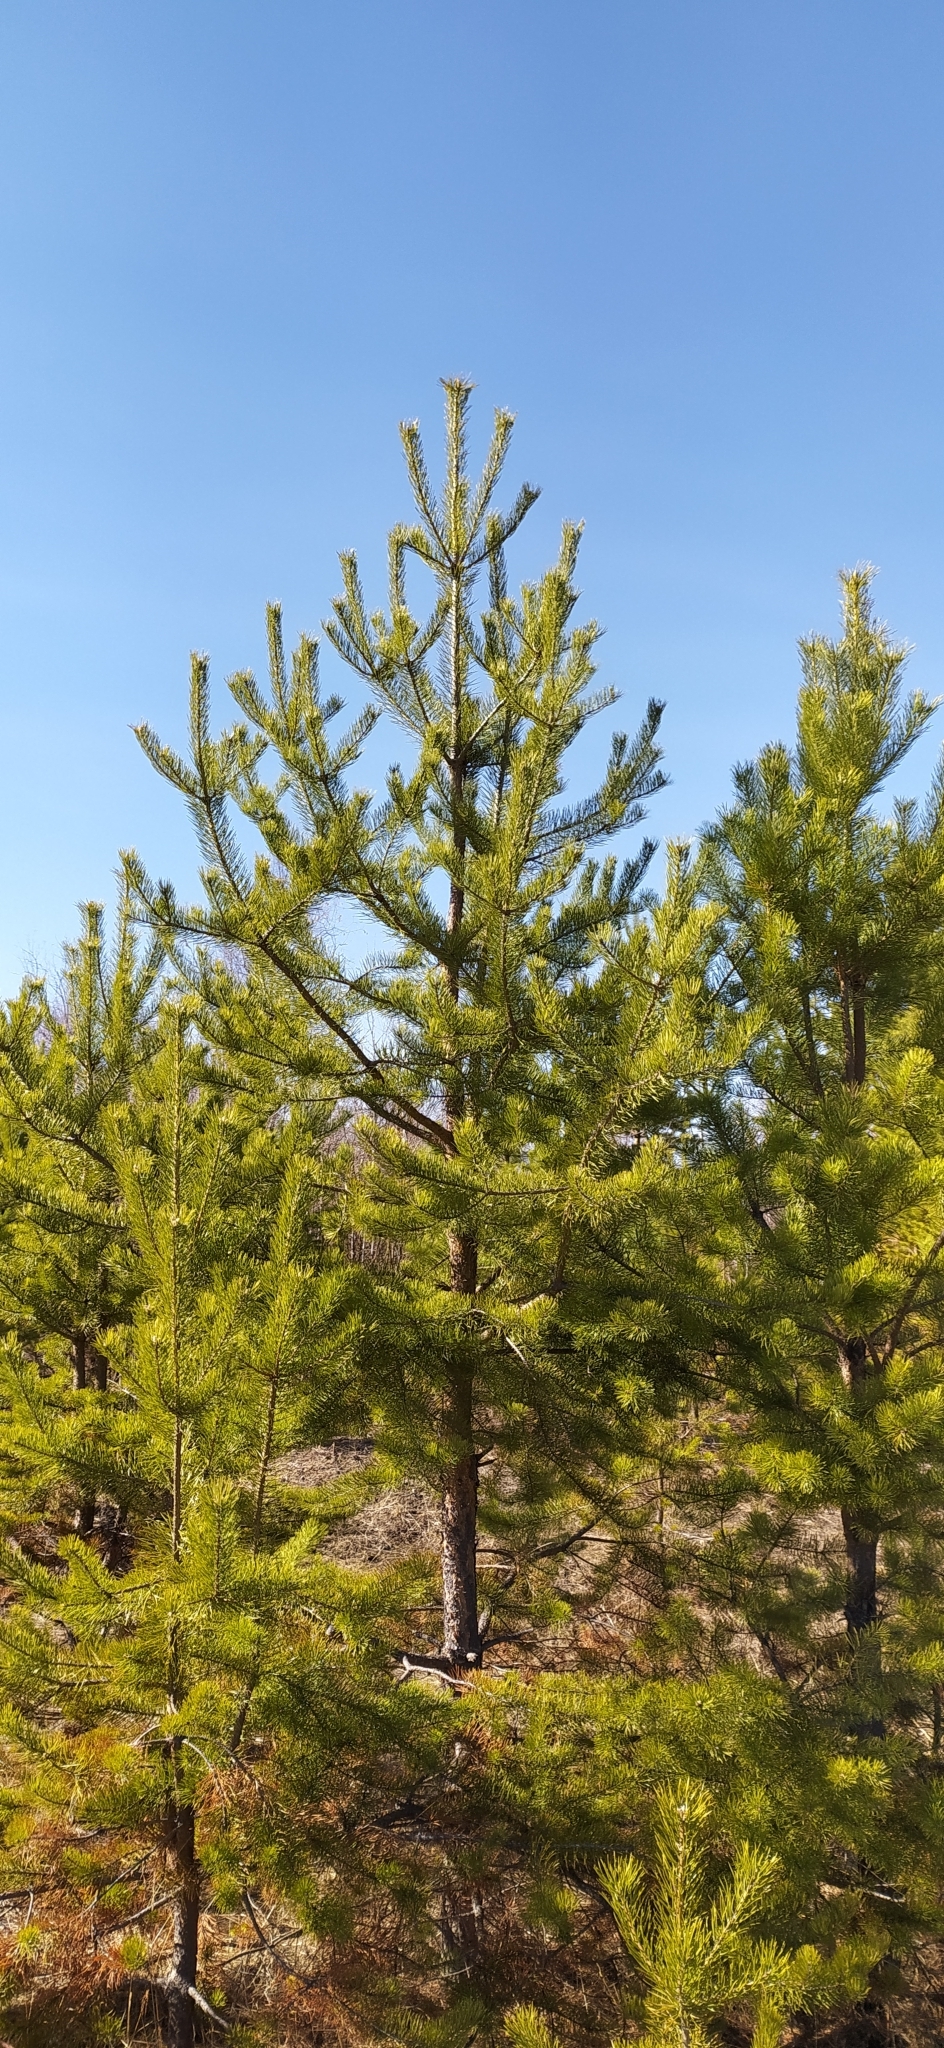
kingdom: Plantae
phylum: Tracheophyta
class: Pinopsida
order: Pinales
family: Pinaceae
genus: Pinus
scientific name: Pinus sylvestris
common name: Scots pine
